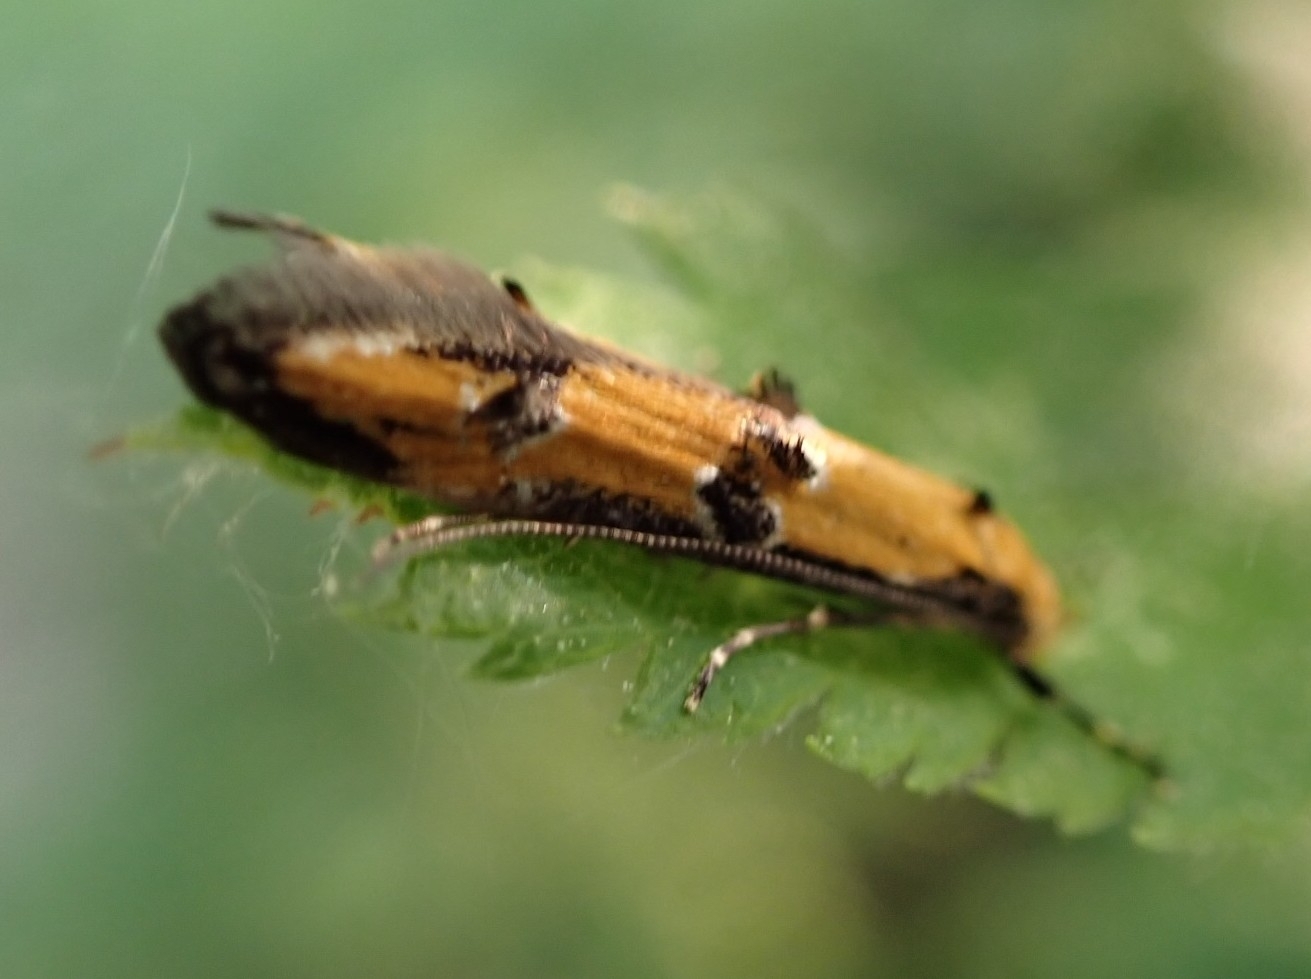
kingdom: Animalia
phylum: Arthropoda
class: Insecta
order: Lepidoptera
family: Elachistidae
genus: Heinemannia
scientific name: Heinemannia laspeyrella
